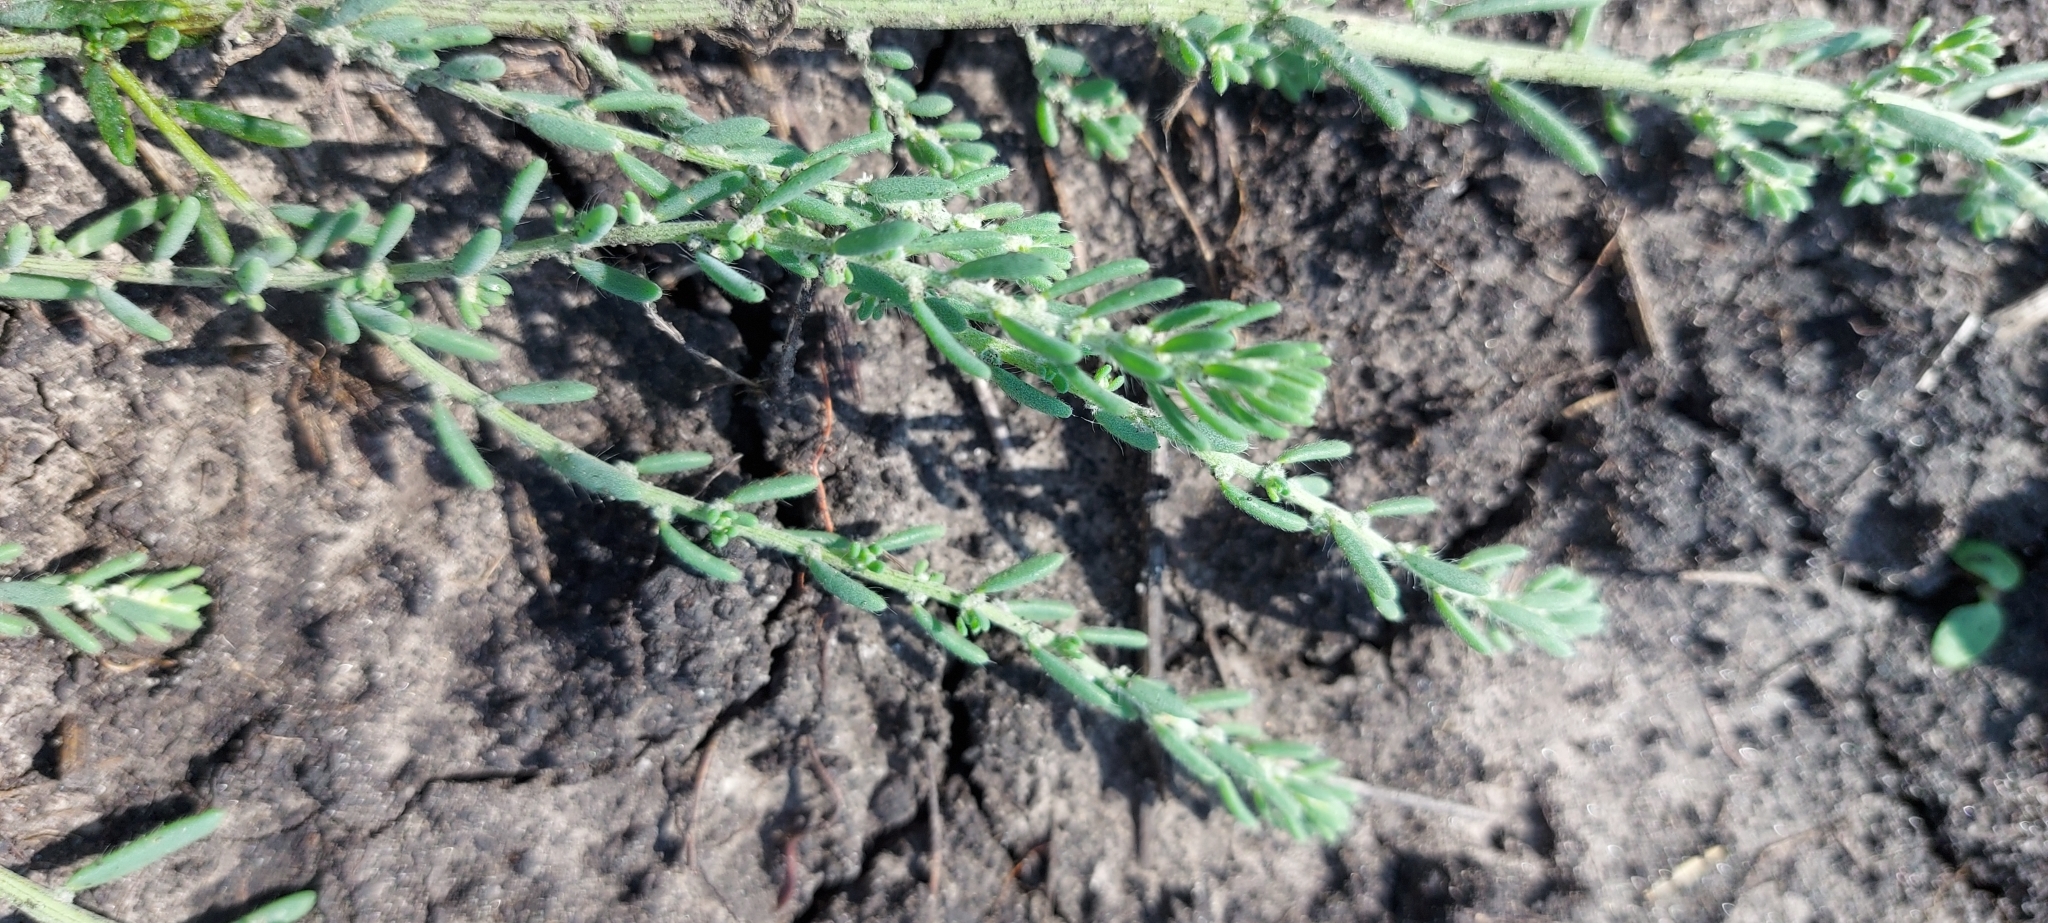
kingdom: Plantae
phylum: Tracheophyta
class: Magnoliopsida
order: Caryophyllales
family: Amaranthaceae
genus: Sedobassia
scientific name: Sedobassia sedoides
